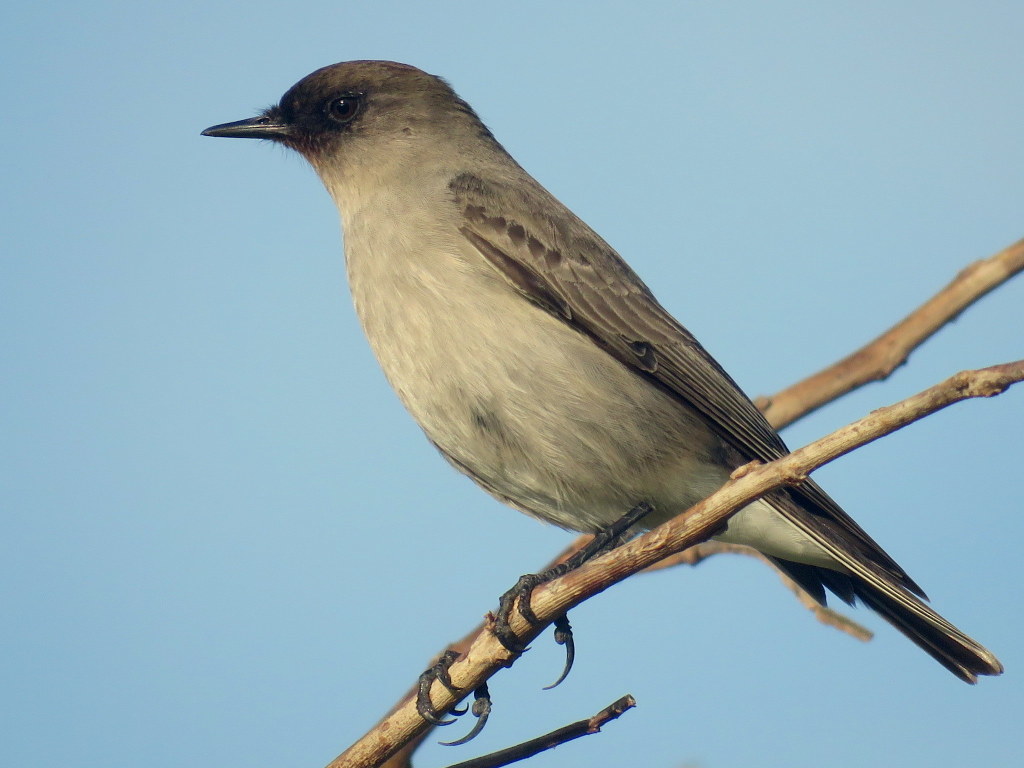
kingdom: Animalia
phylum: Chordata
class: Aves
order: Passeriformes
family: Tyrannidae
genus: Muscisaxicola
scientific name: Muscisaxicola maclovianus
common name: Dark-faced ground tyrant
